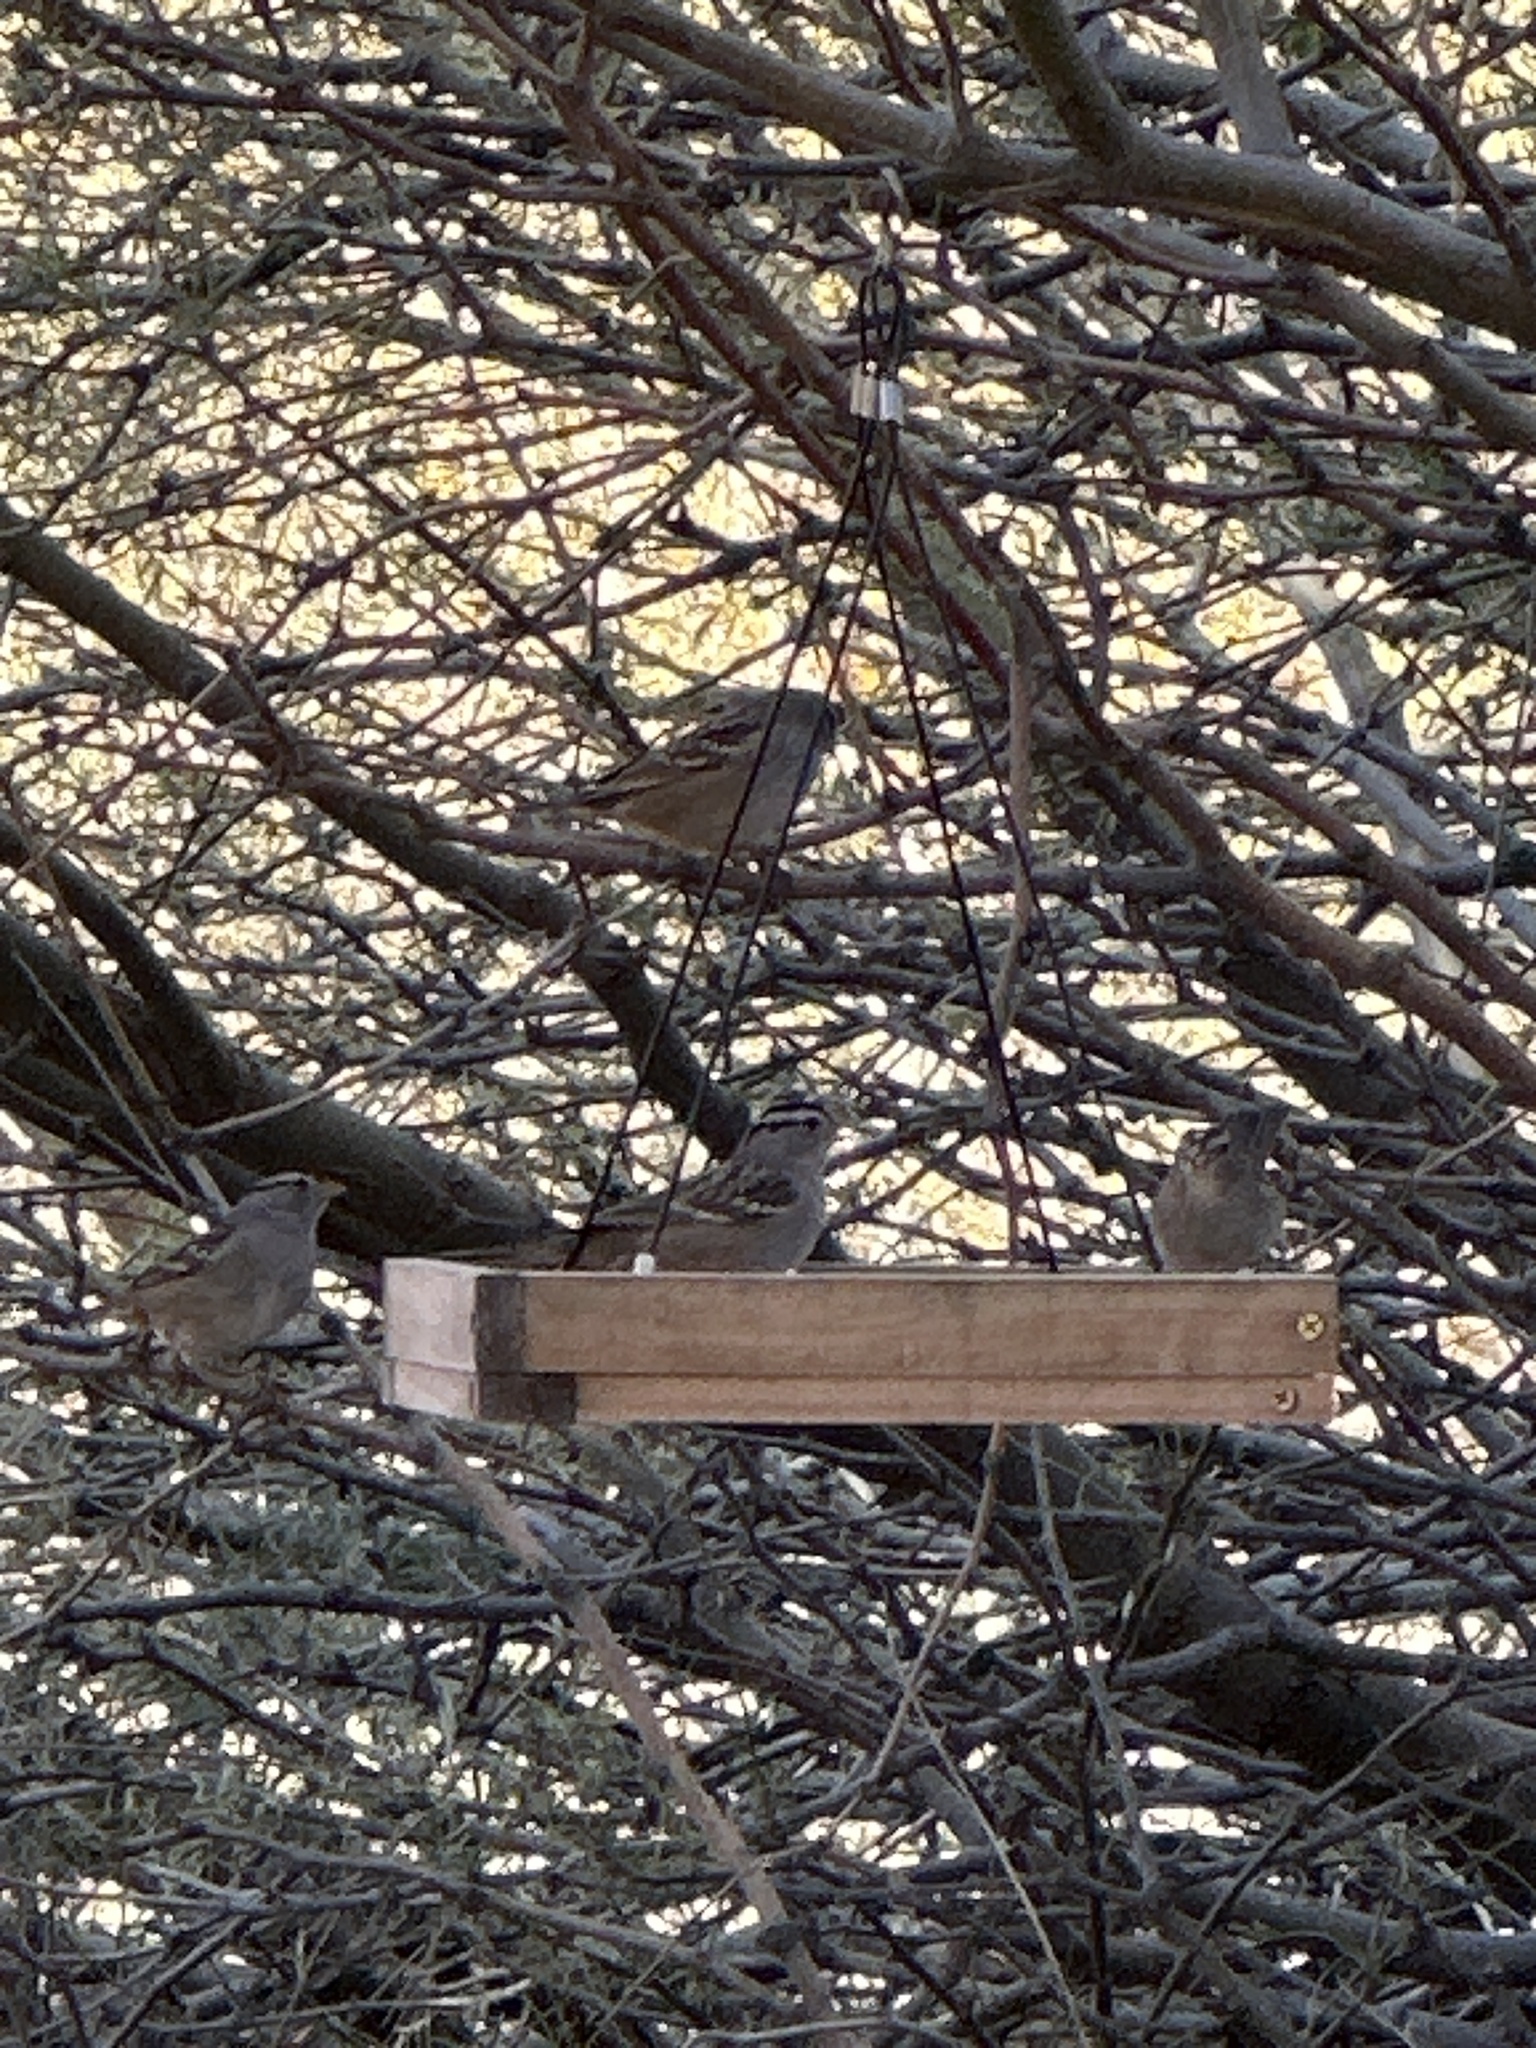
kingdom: Animalia
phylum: Chordata
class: Aves
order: Passeriformes
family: Passerellidae
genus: Zonotrichia
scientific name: Zonotrichia leucophrys
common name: White-crowned sparrow
